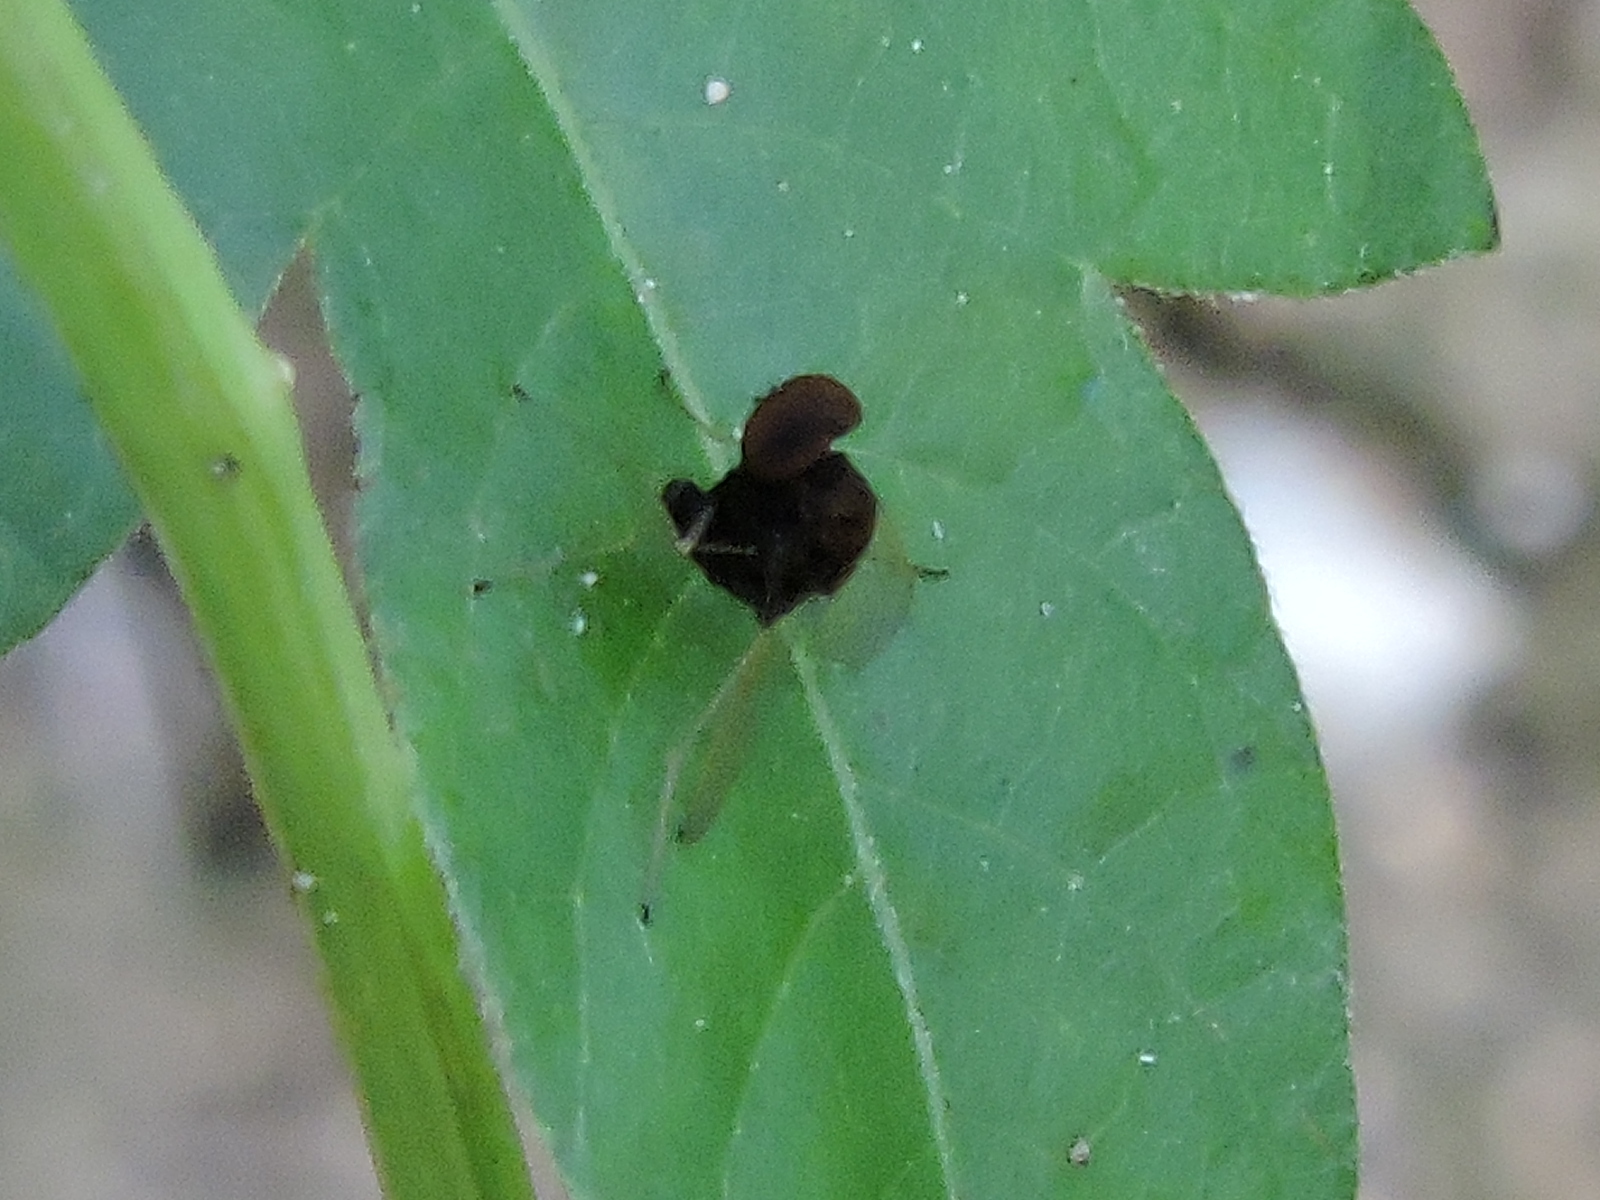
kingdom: Animalia
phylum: Arthropoda
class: Insecta
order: Diptera
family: Rhagionidae
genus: Chrysopilus
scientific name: Chrysopilus basilaris
